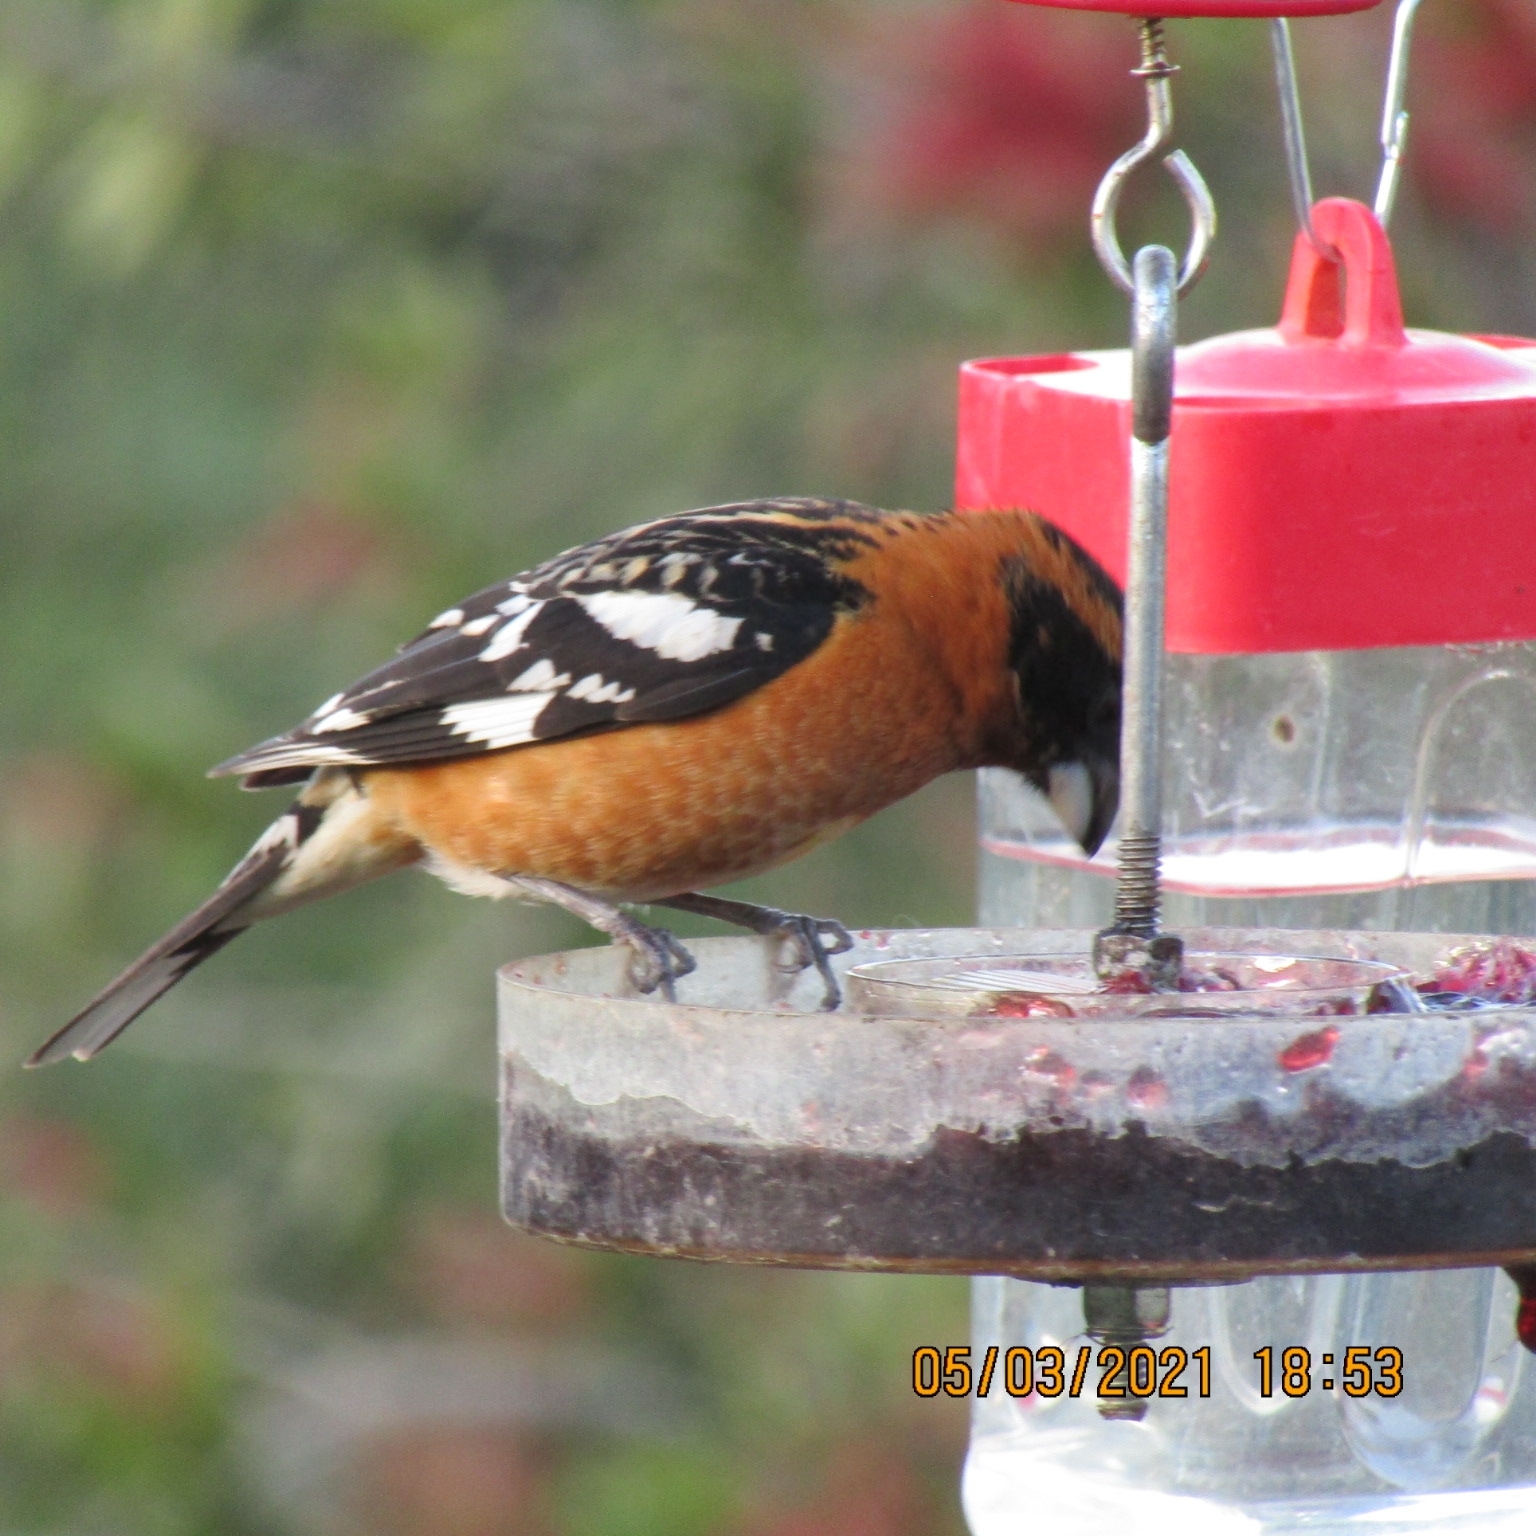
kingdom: Animalia
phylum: Chordata
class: Aves
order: Passeriformes
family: Cardinalidae
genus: Pheucticus
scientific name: Pheucticus melanocephalus
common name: Black-headed grosbeak
